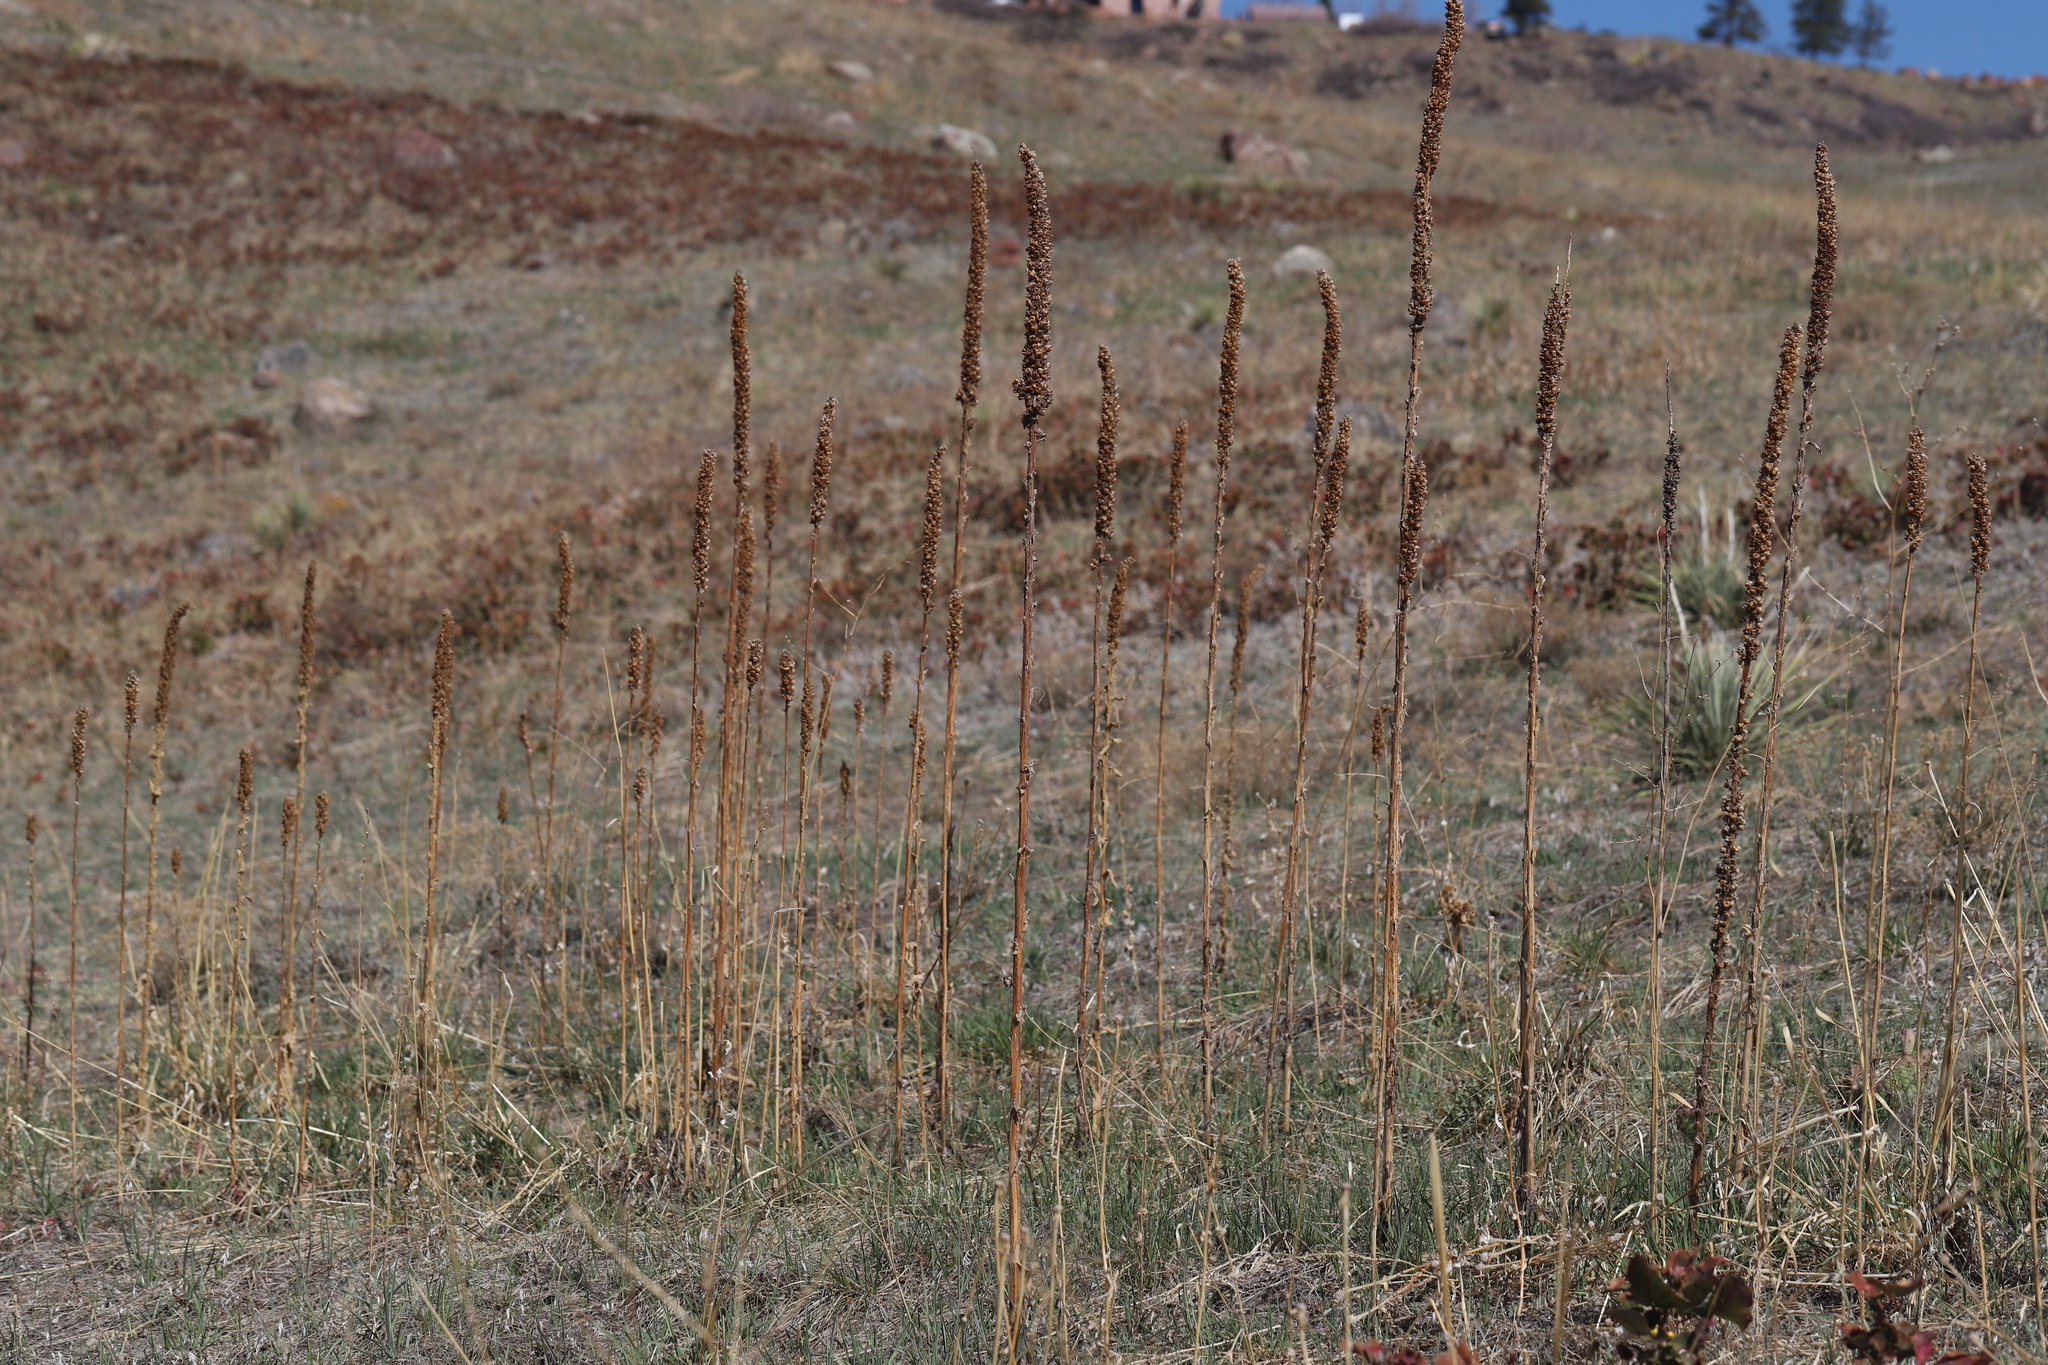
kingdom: Plantae
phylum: Tracheophyta
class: Magnoliopsida
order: Lamiales
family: Scrophulariaceae
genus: Verbascum
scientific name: Verbascum thapsus
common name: Common mullein
